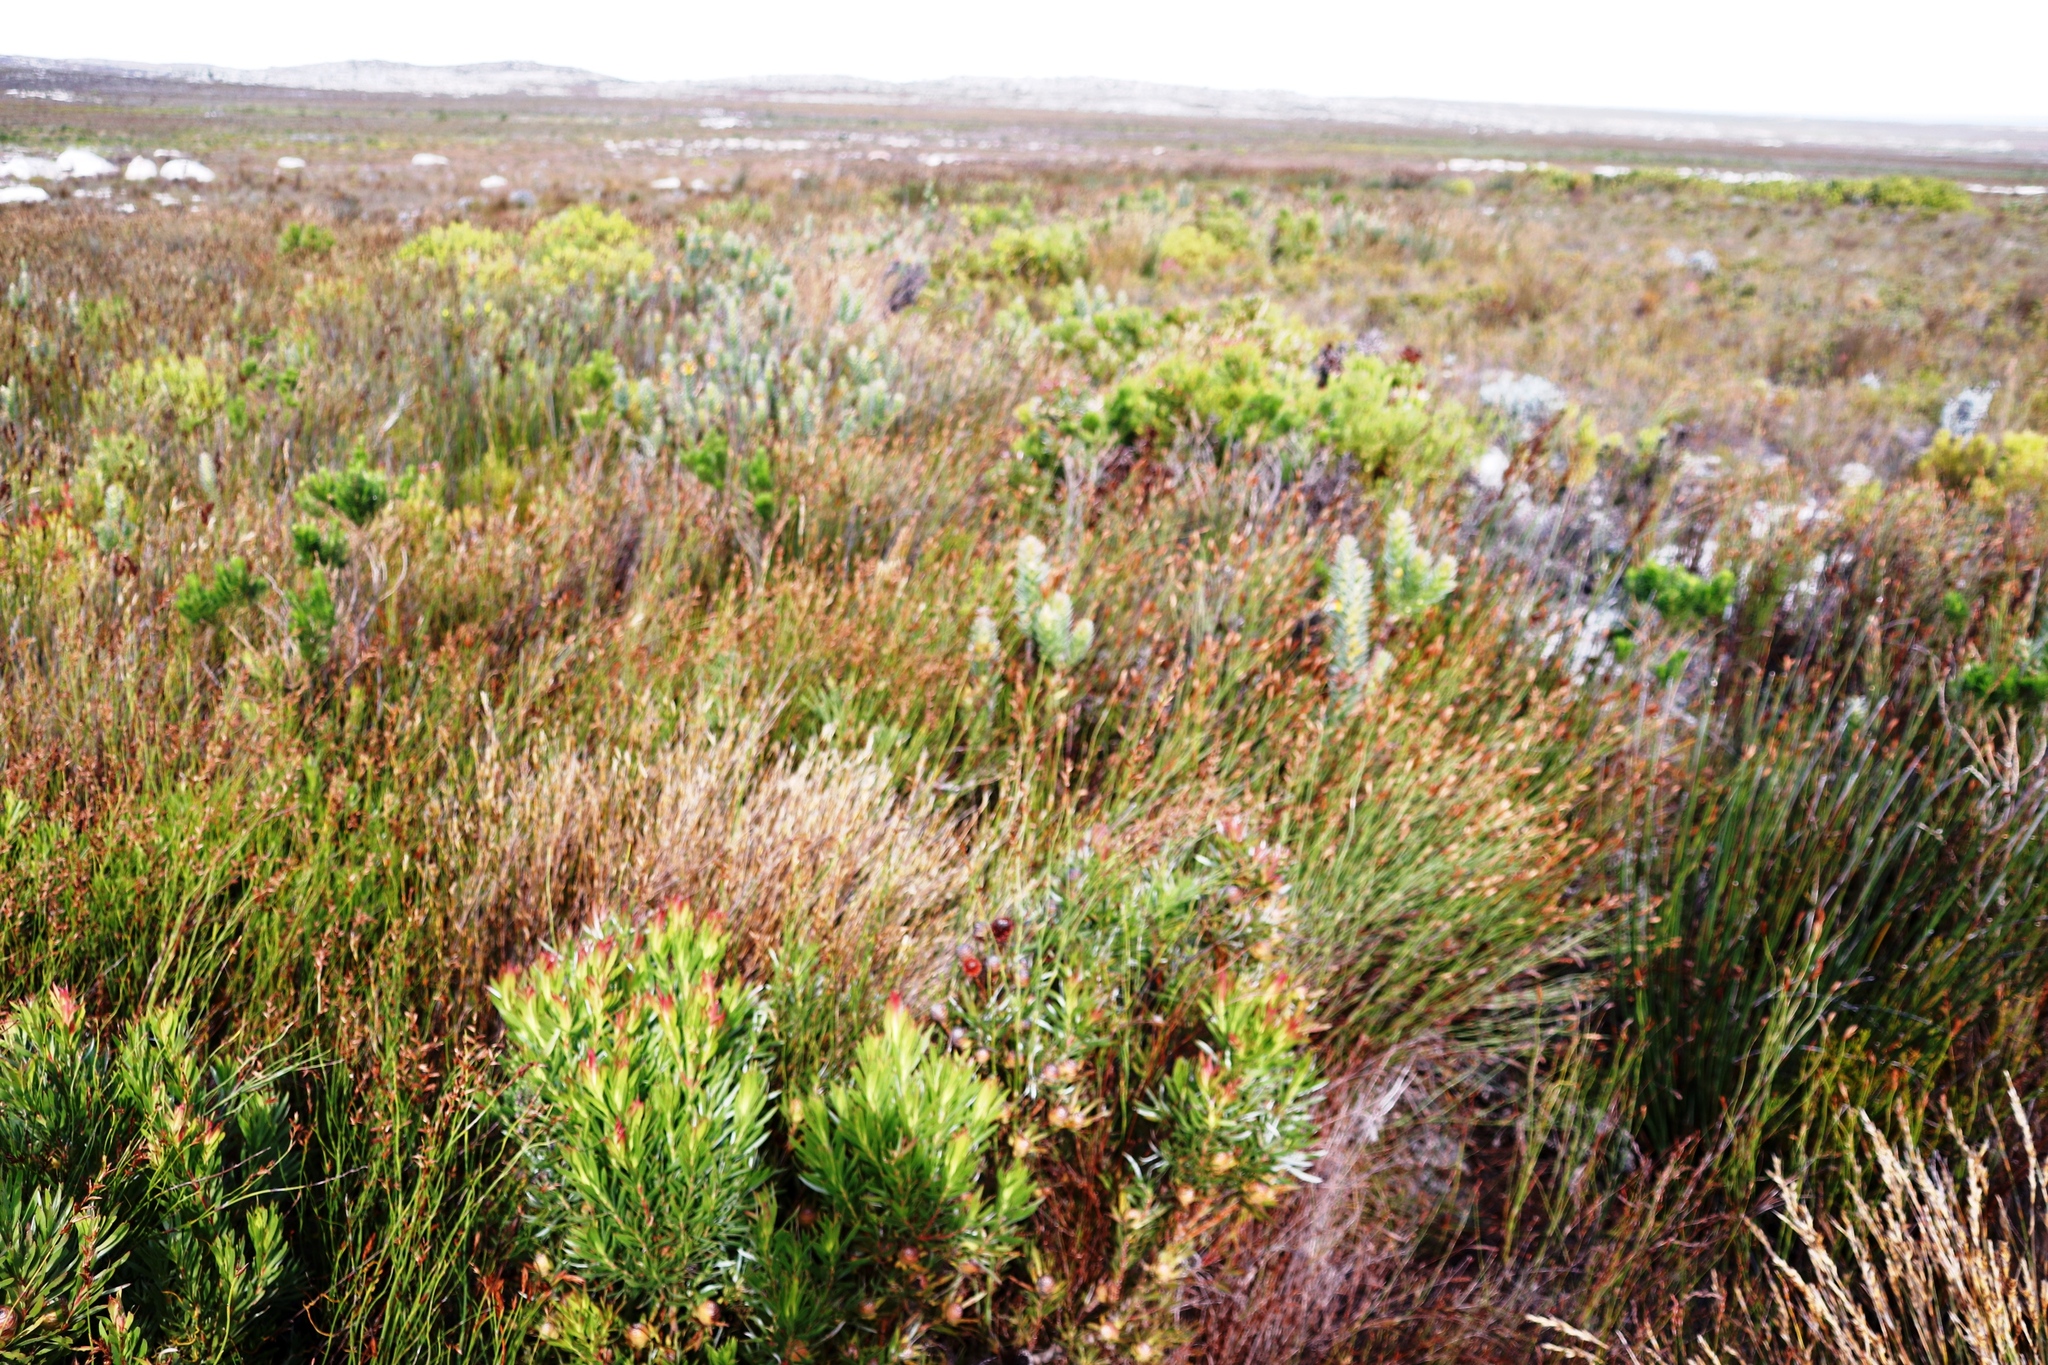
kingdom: Plantae
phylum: Tracheophyta
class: Magnoliopsida
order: Proteales
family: Proteaceae
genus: Leucadendron
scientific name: Leucadendron xanthoconus
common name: Sickle-leaf conebush
